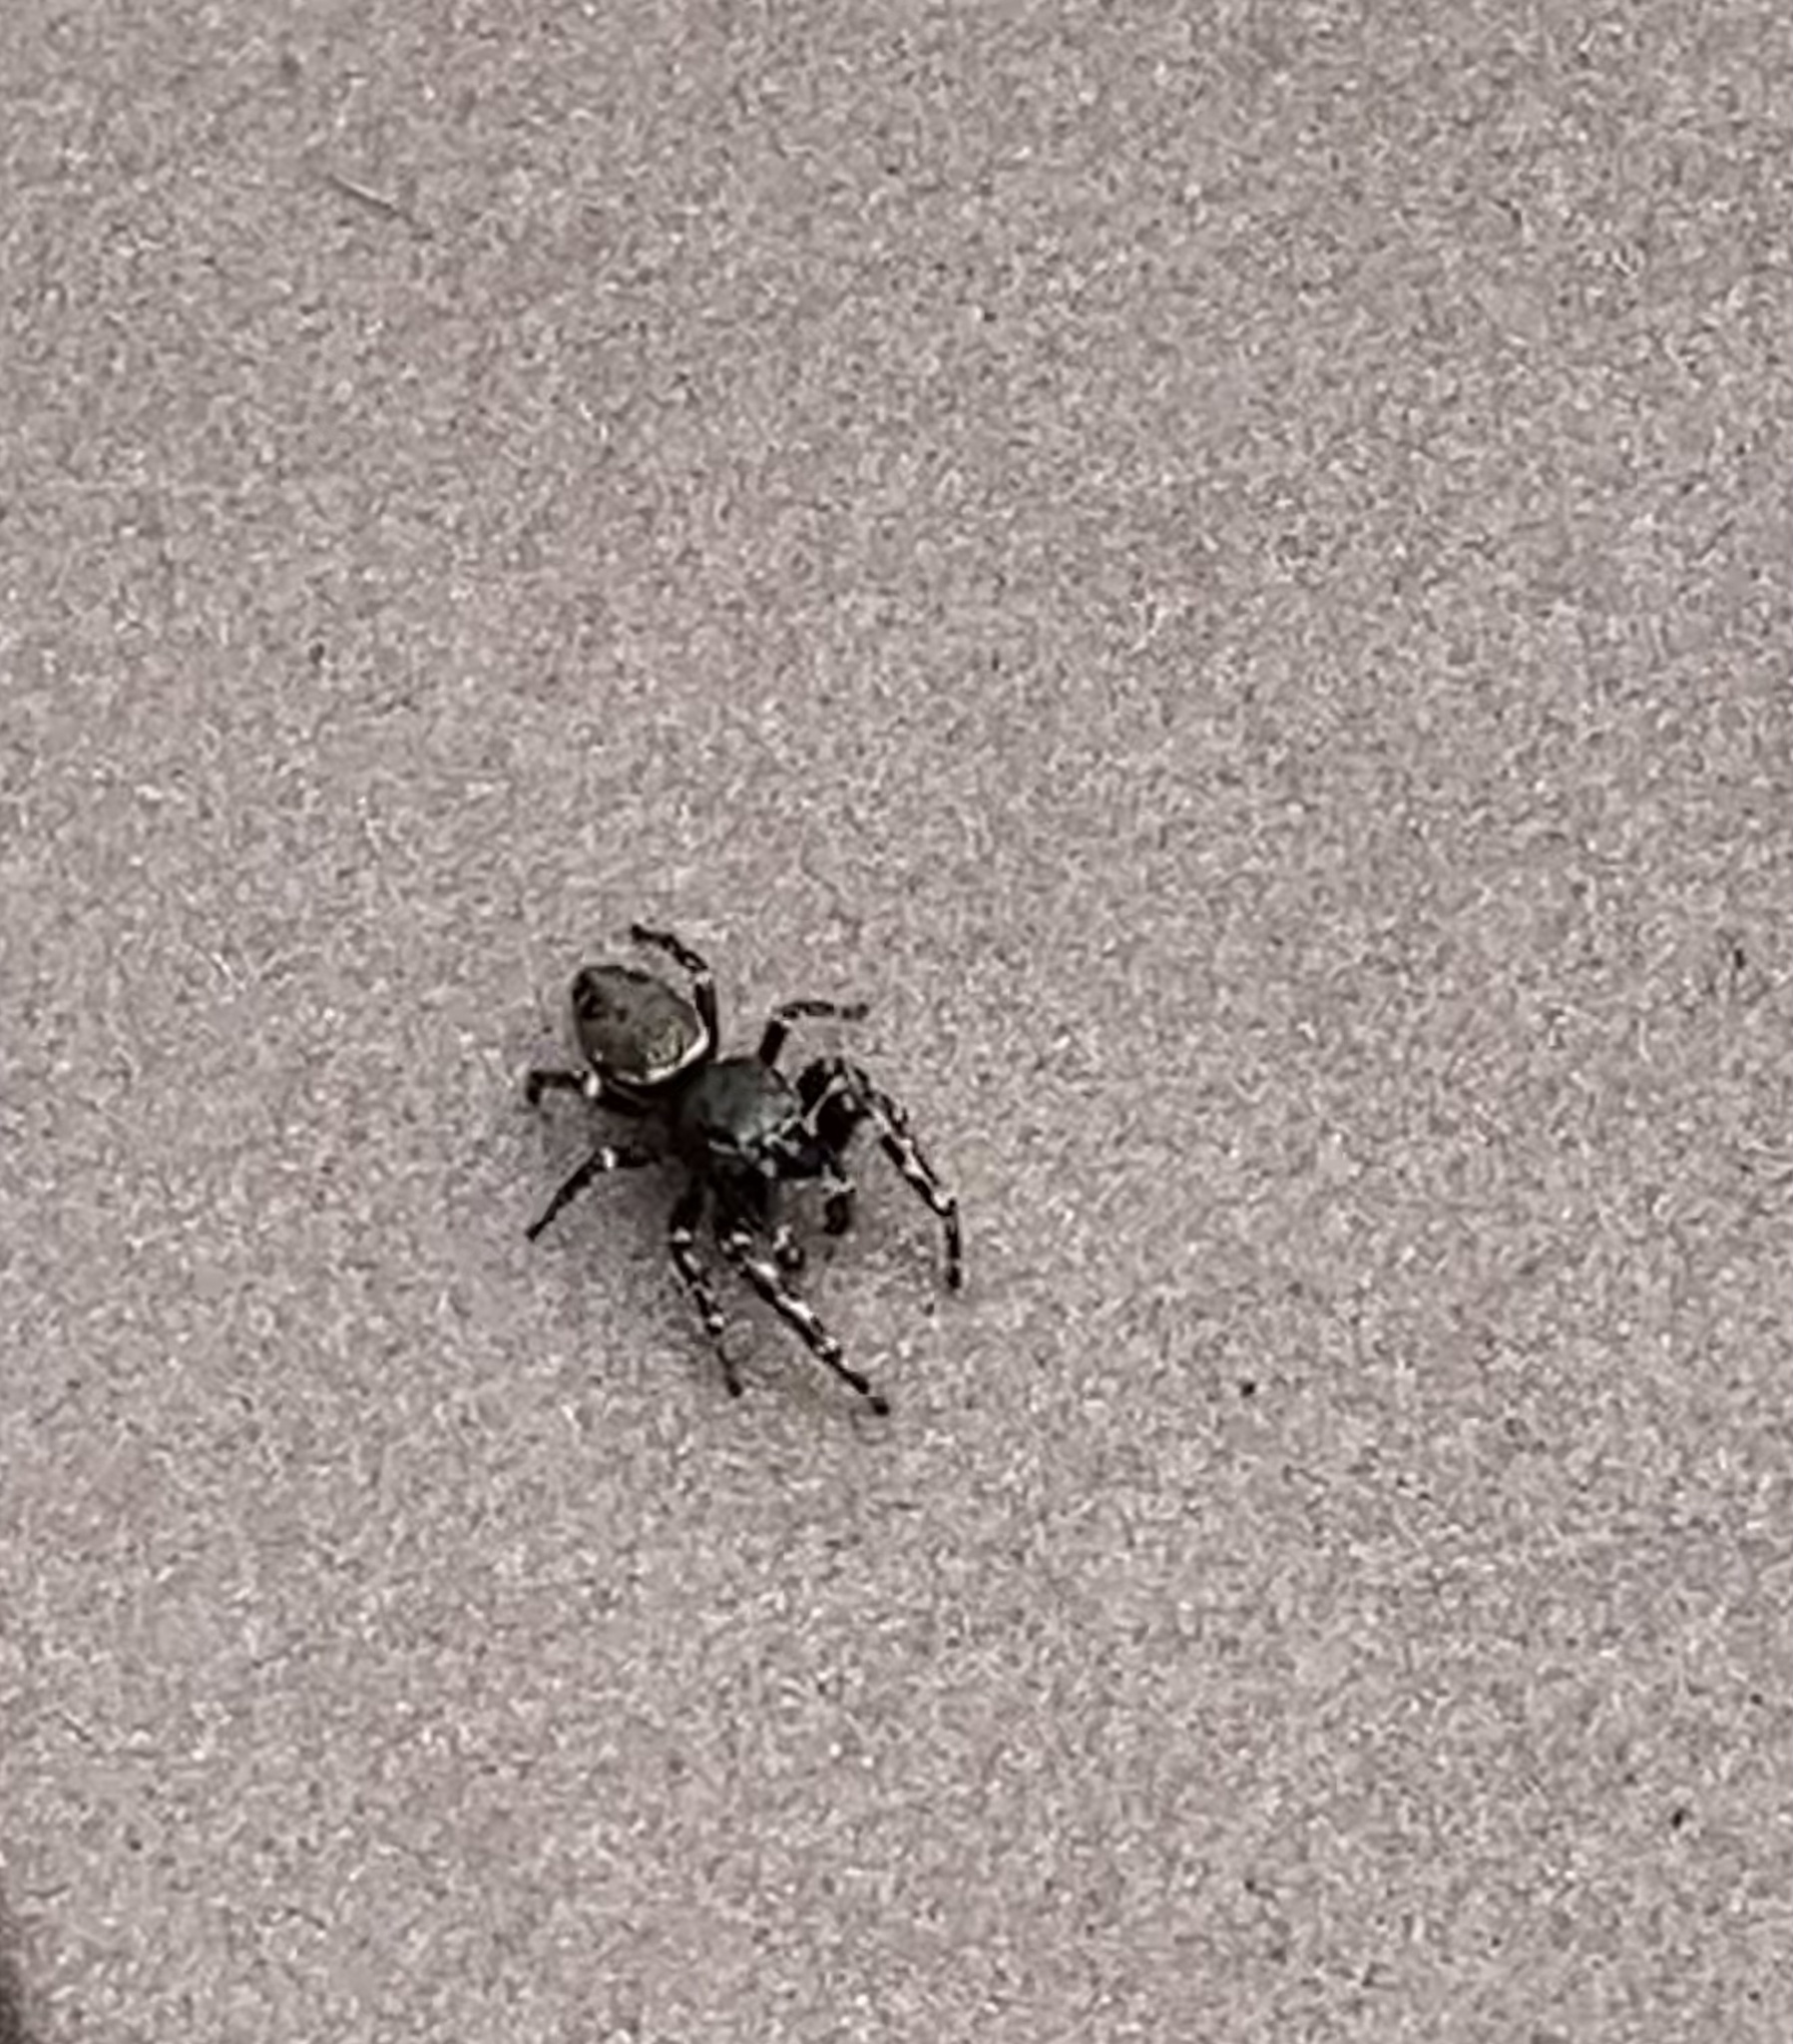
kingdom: Animalia
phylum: Arthropoda
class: Arachnida
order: Araneae
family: Salticidae
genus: Pelegrina
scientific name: Pelegrina aeneola
